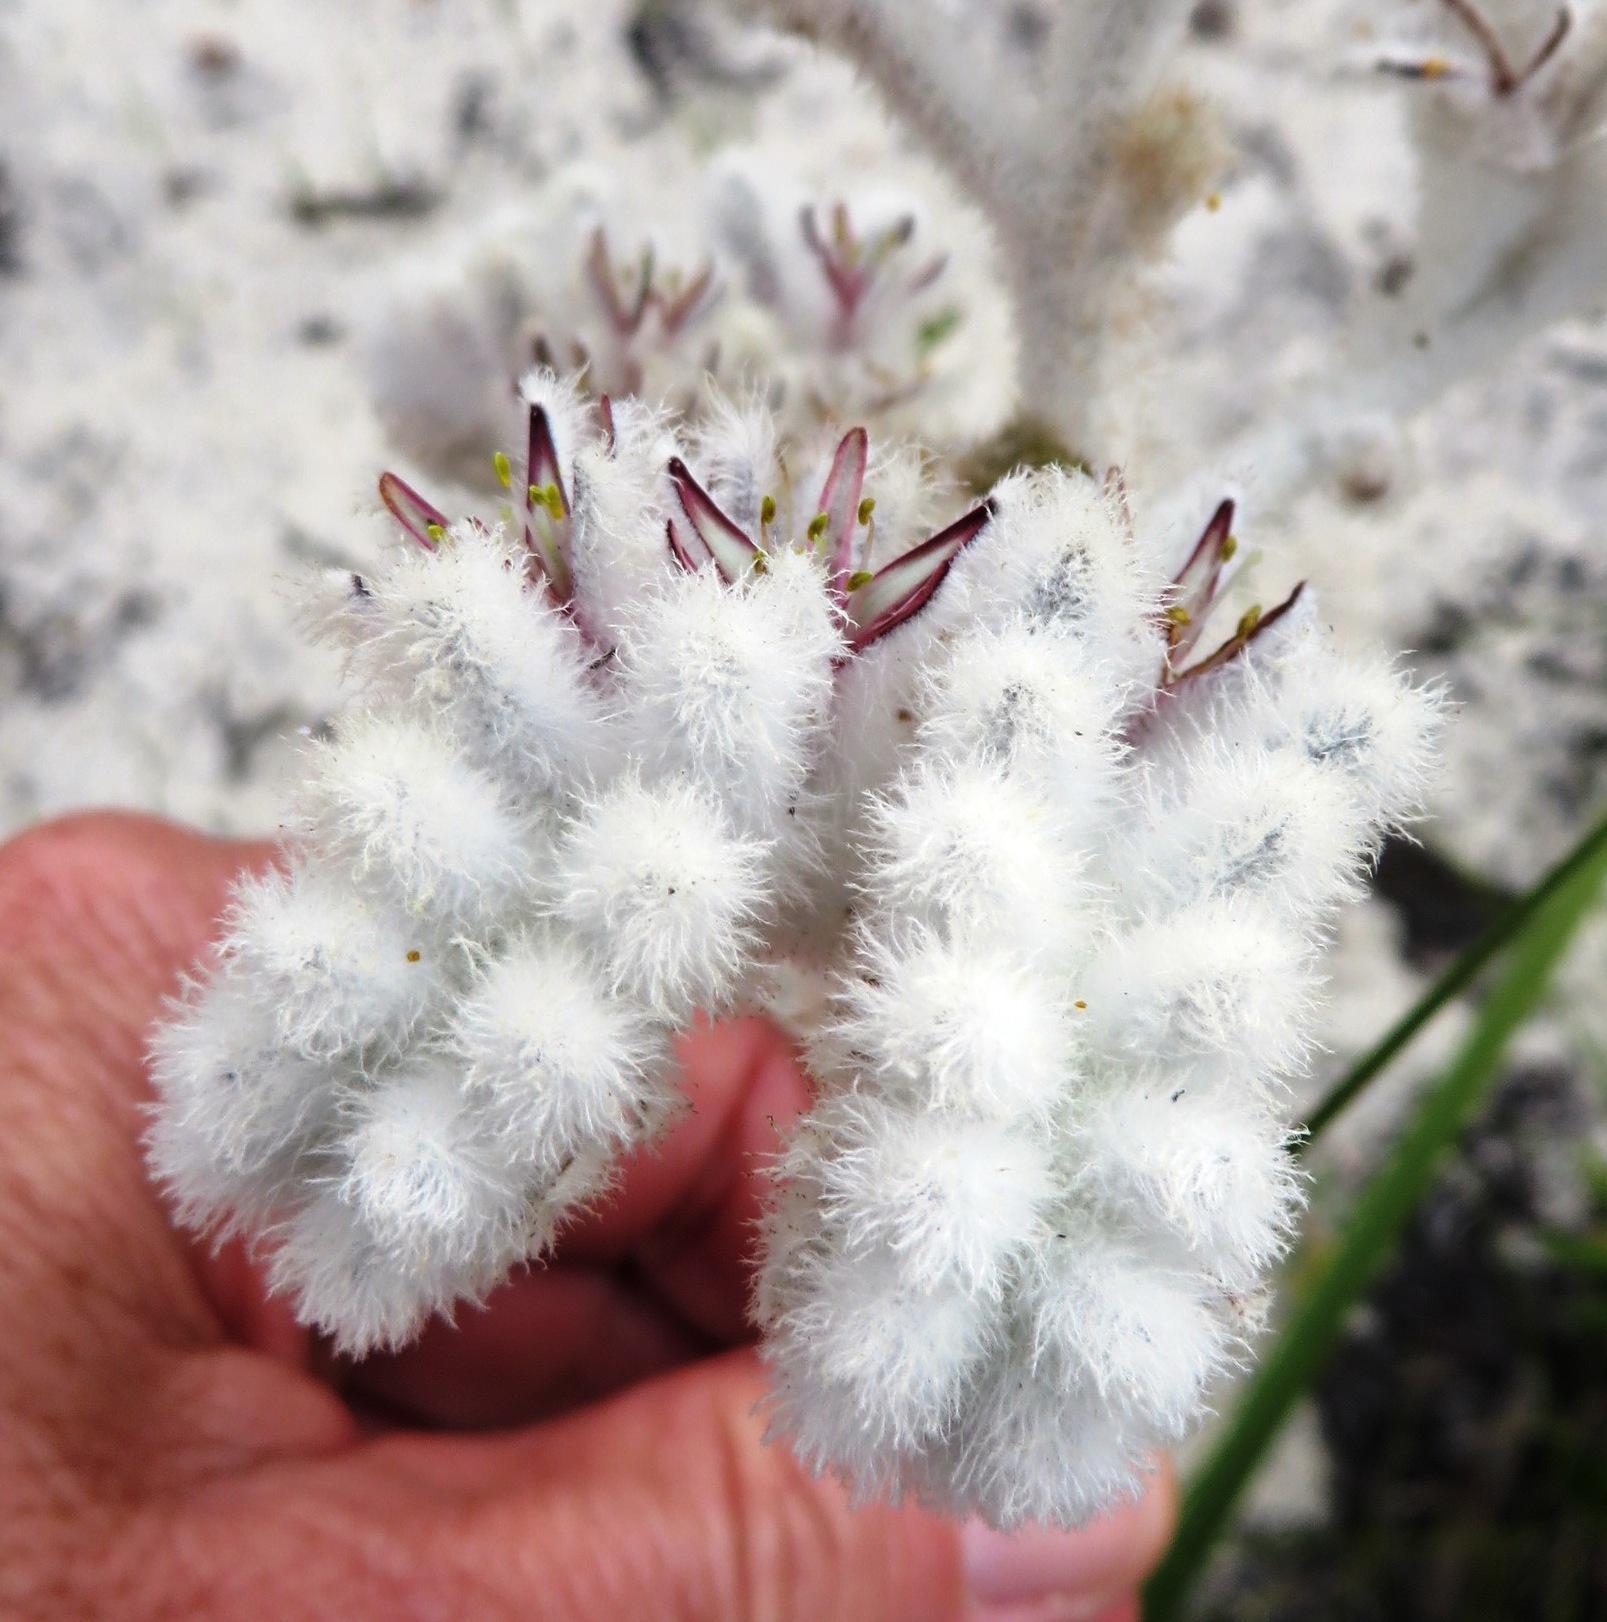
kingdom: Plantae
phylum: Tracheophyta
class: Liliopsida
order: Asparagales
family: Lanariaceae
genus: Lanaria
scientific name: Lanaria lanata
